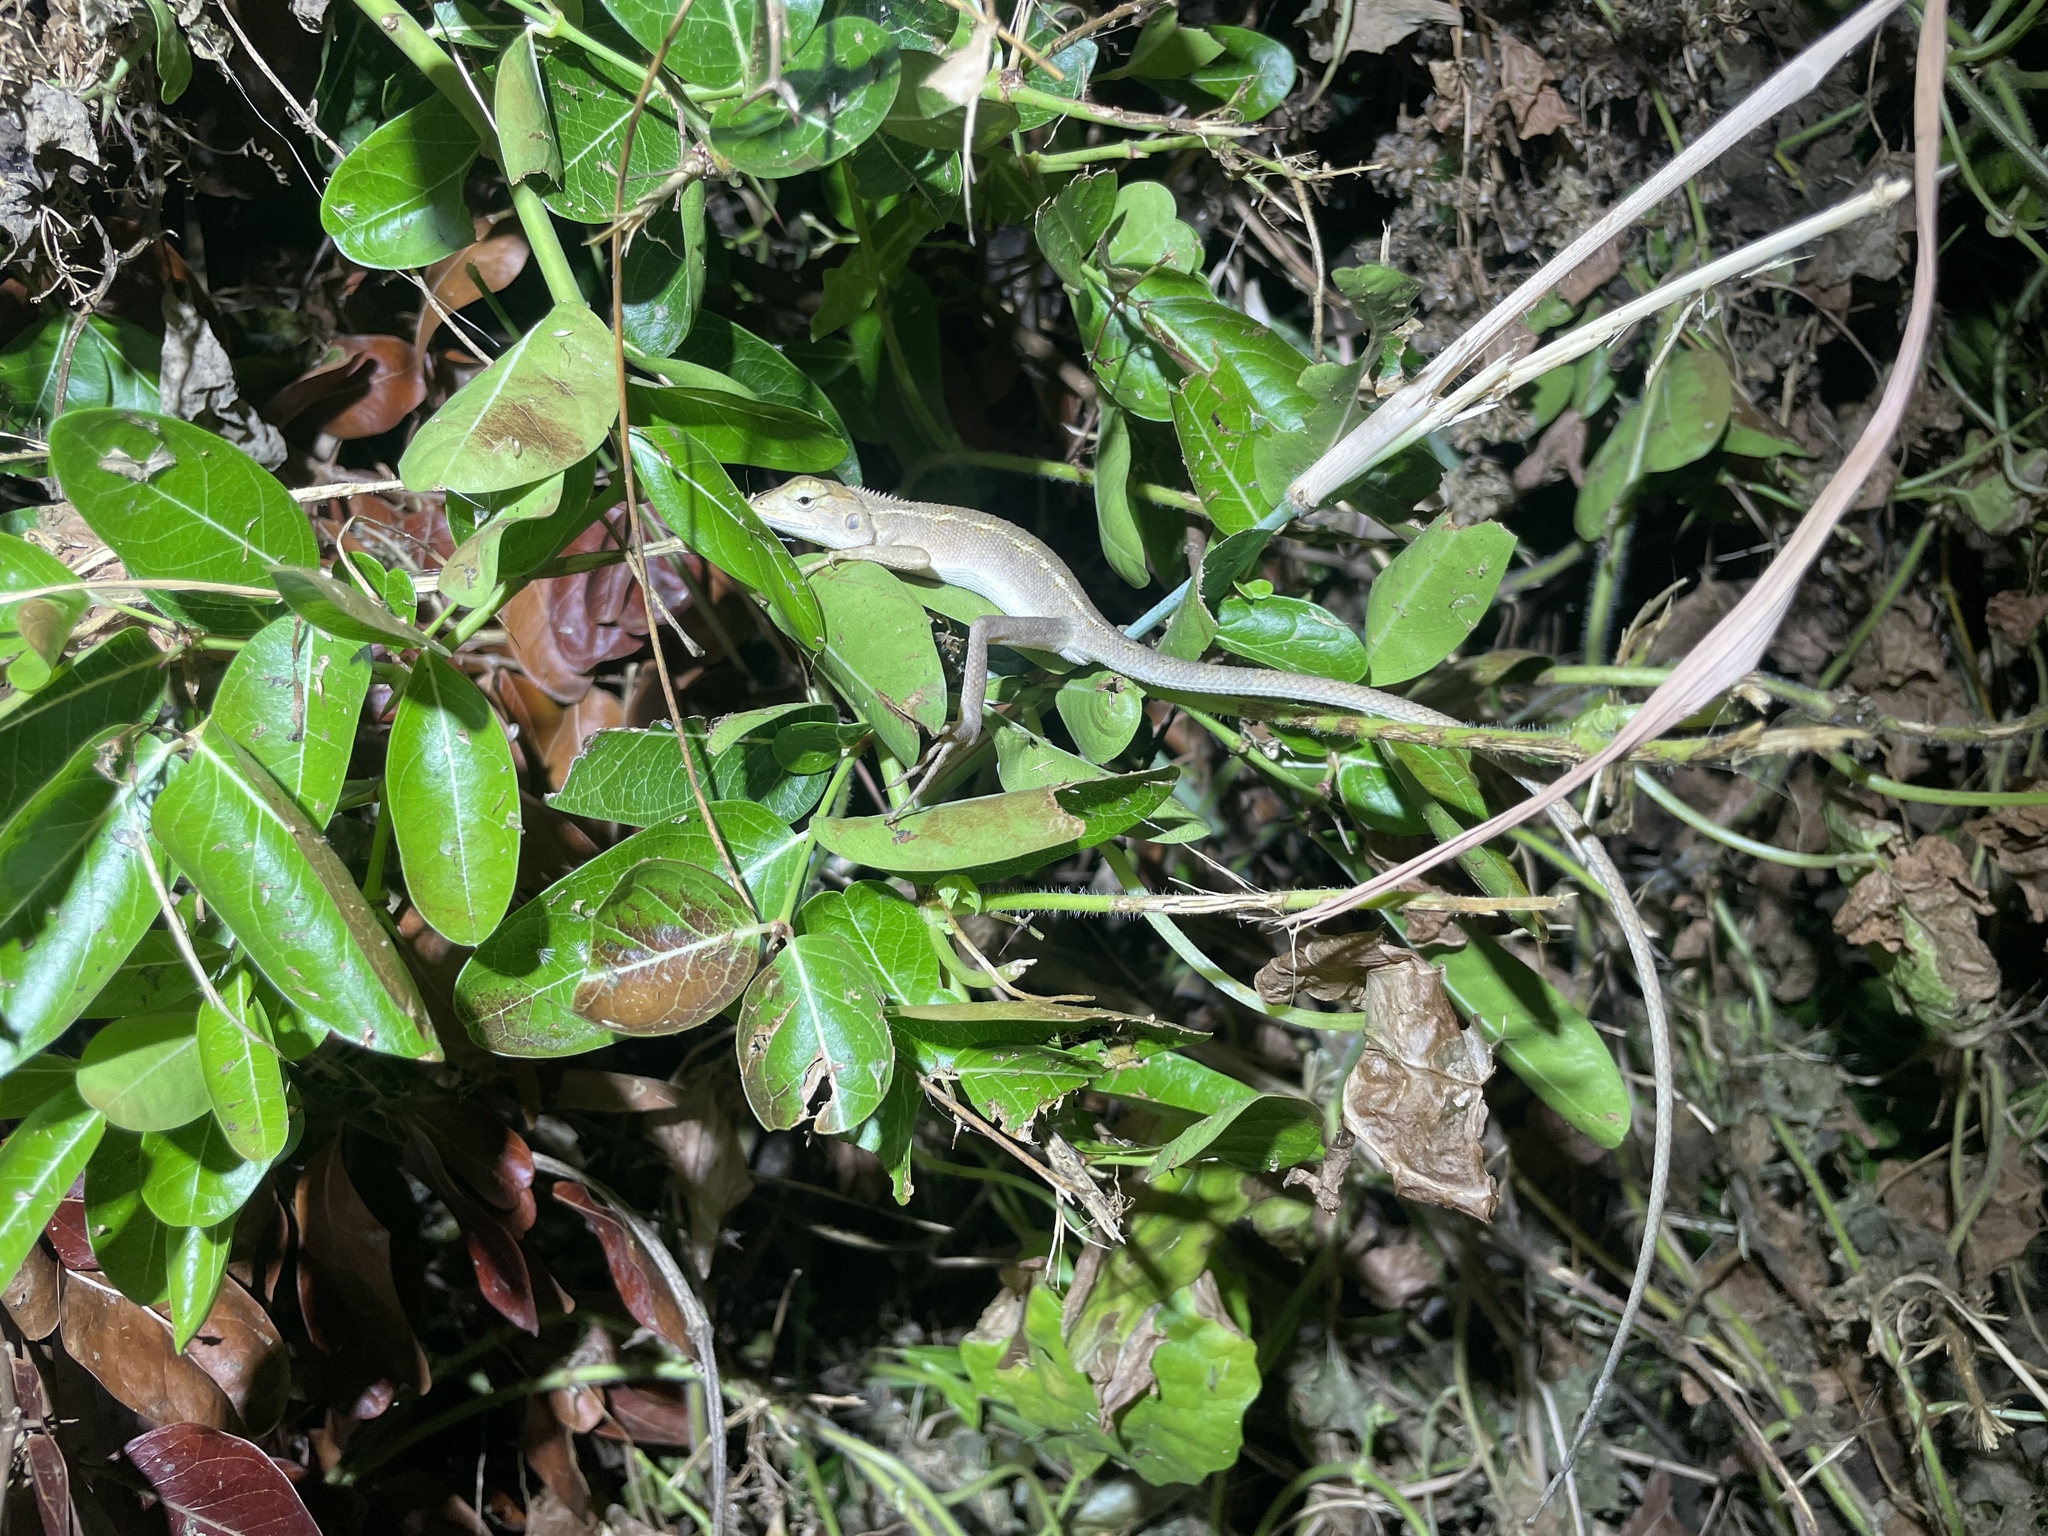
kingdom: Animalia
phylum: Chordata
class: Squamata
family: Agamidae
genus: Calotes
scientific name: Calotes versicolor
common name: Oriental garden lizard
